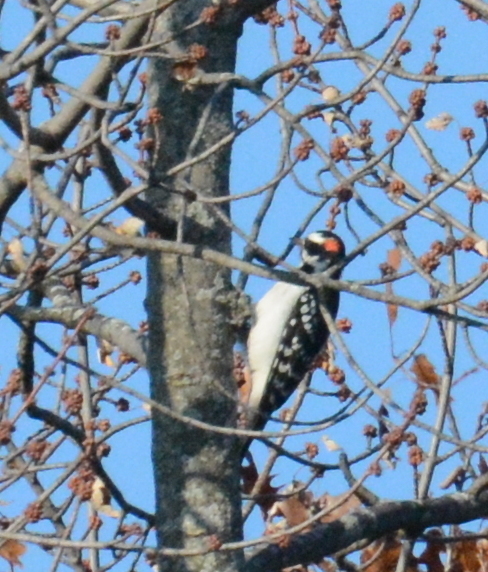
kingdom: Animalia
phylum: Chordata
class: Aves
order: Piciformes
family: Picidae
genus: Leuconotopicus
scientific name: Leuconotopicus villosus
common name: Hairy woodpecker
